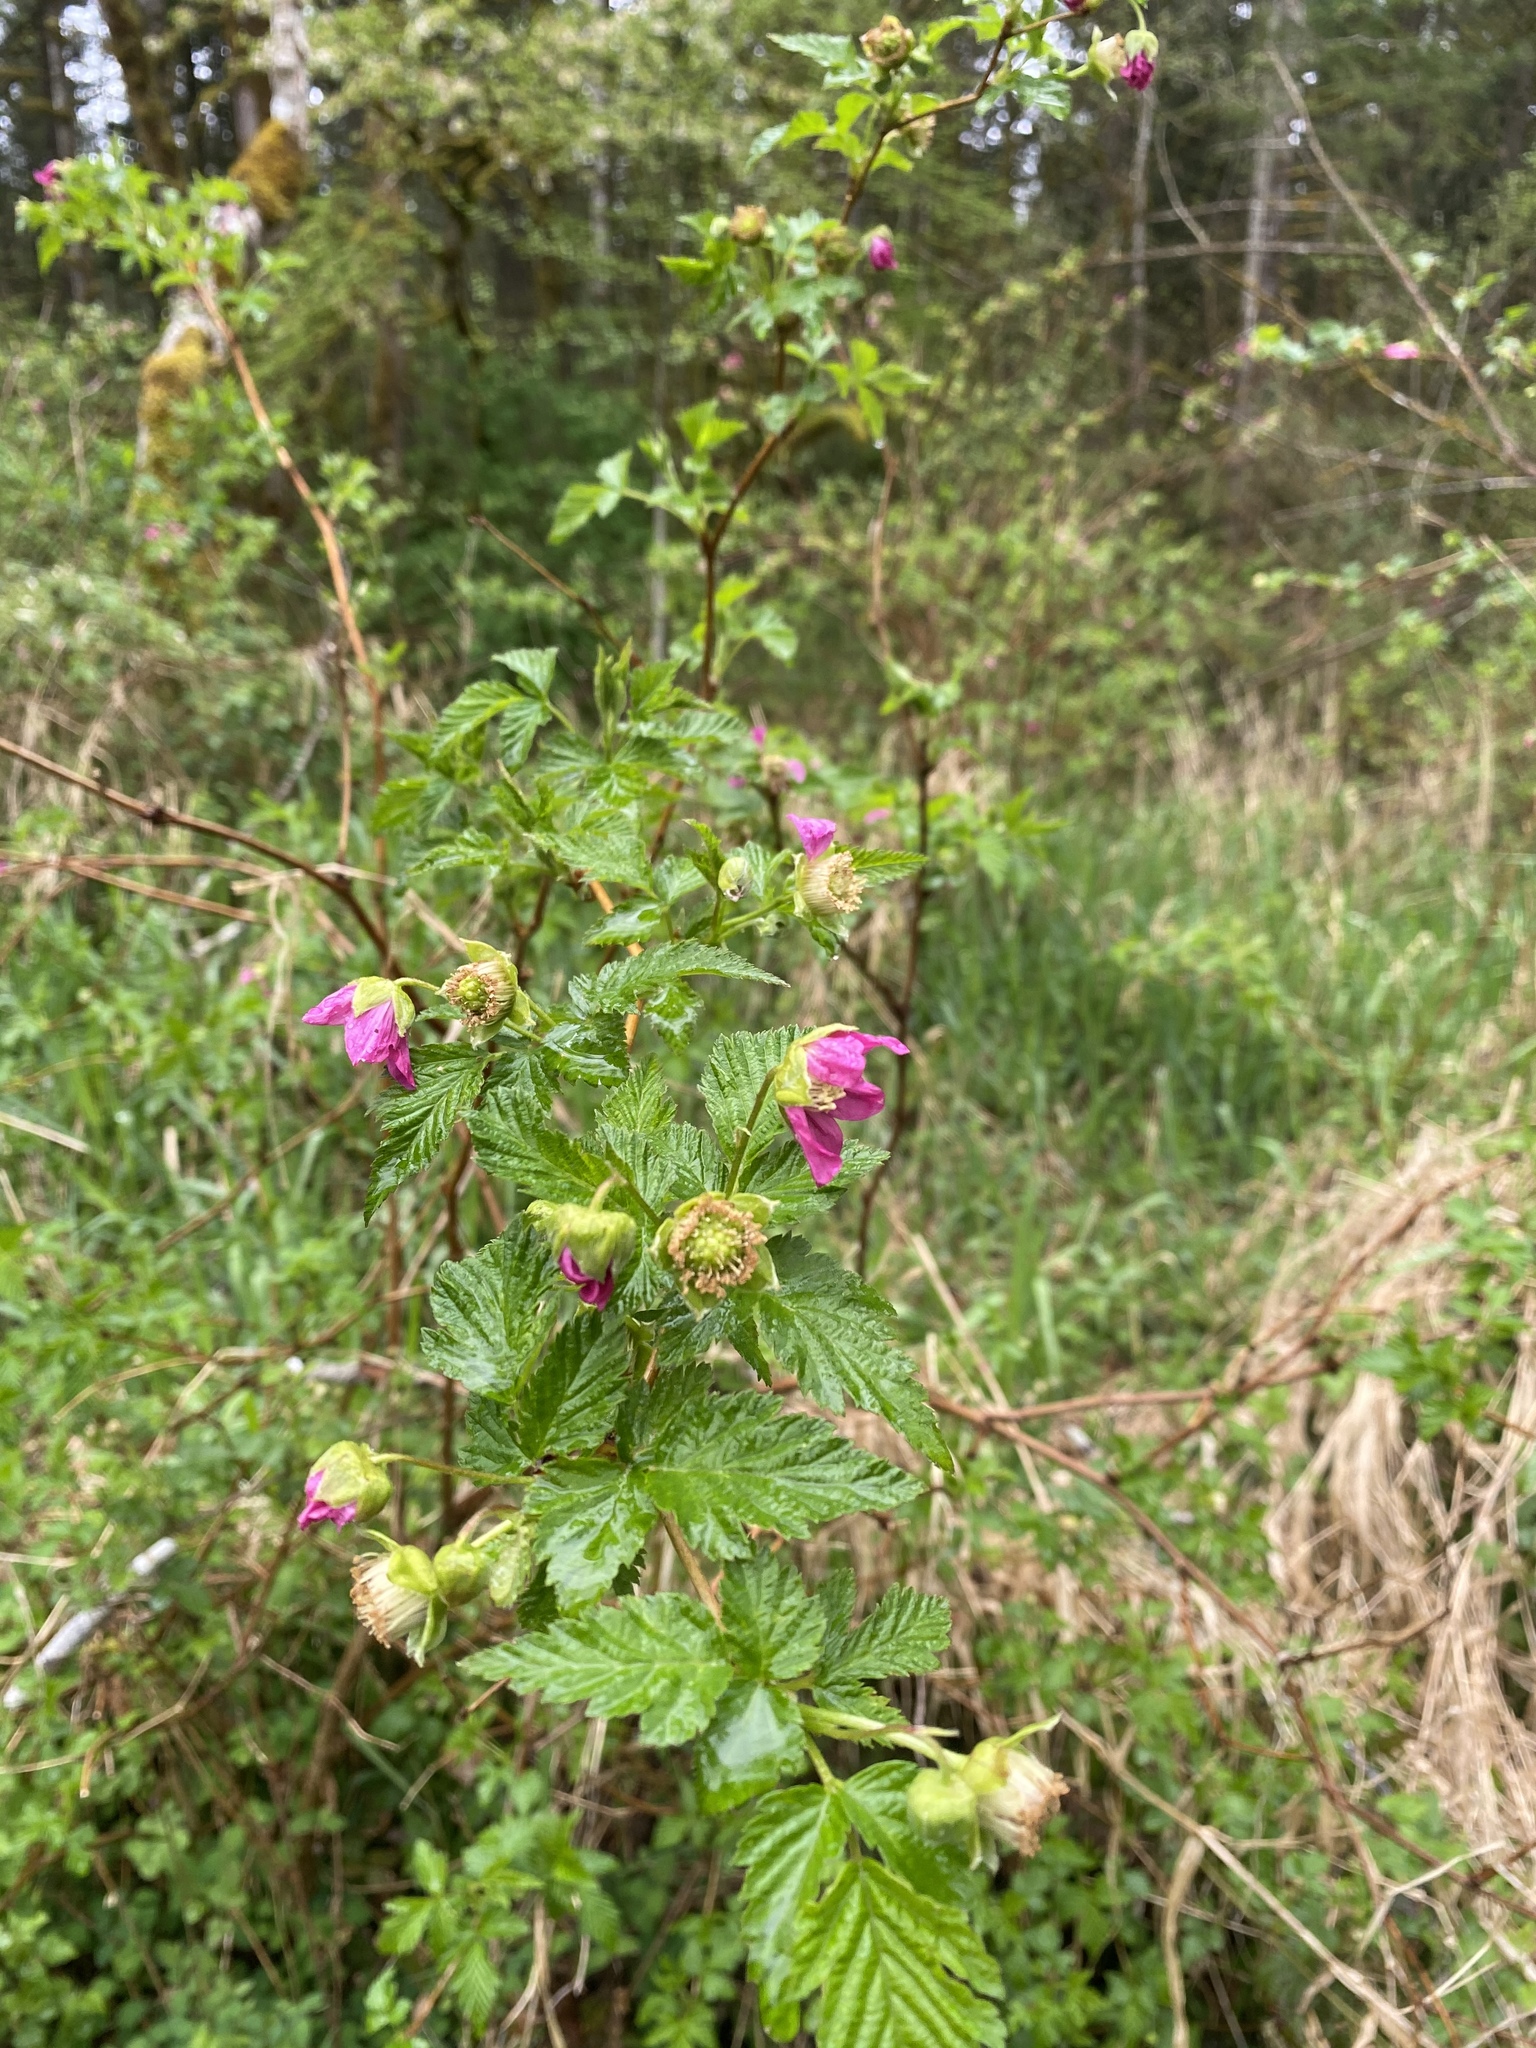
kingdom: Plantae
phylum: Tracheophyta
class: Magnoliopsida
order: Rosales
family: Rosaceae
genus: Rubus
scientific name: Rubus spectabilis
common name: Salmonberry
